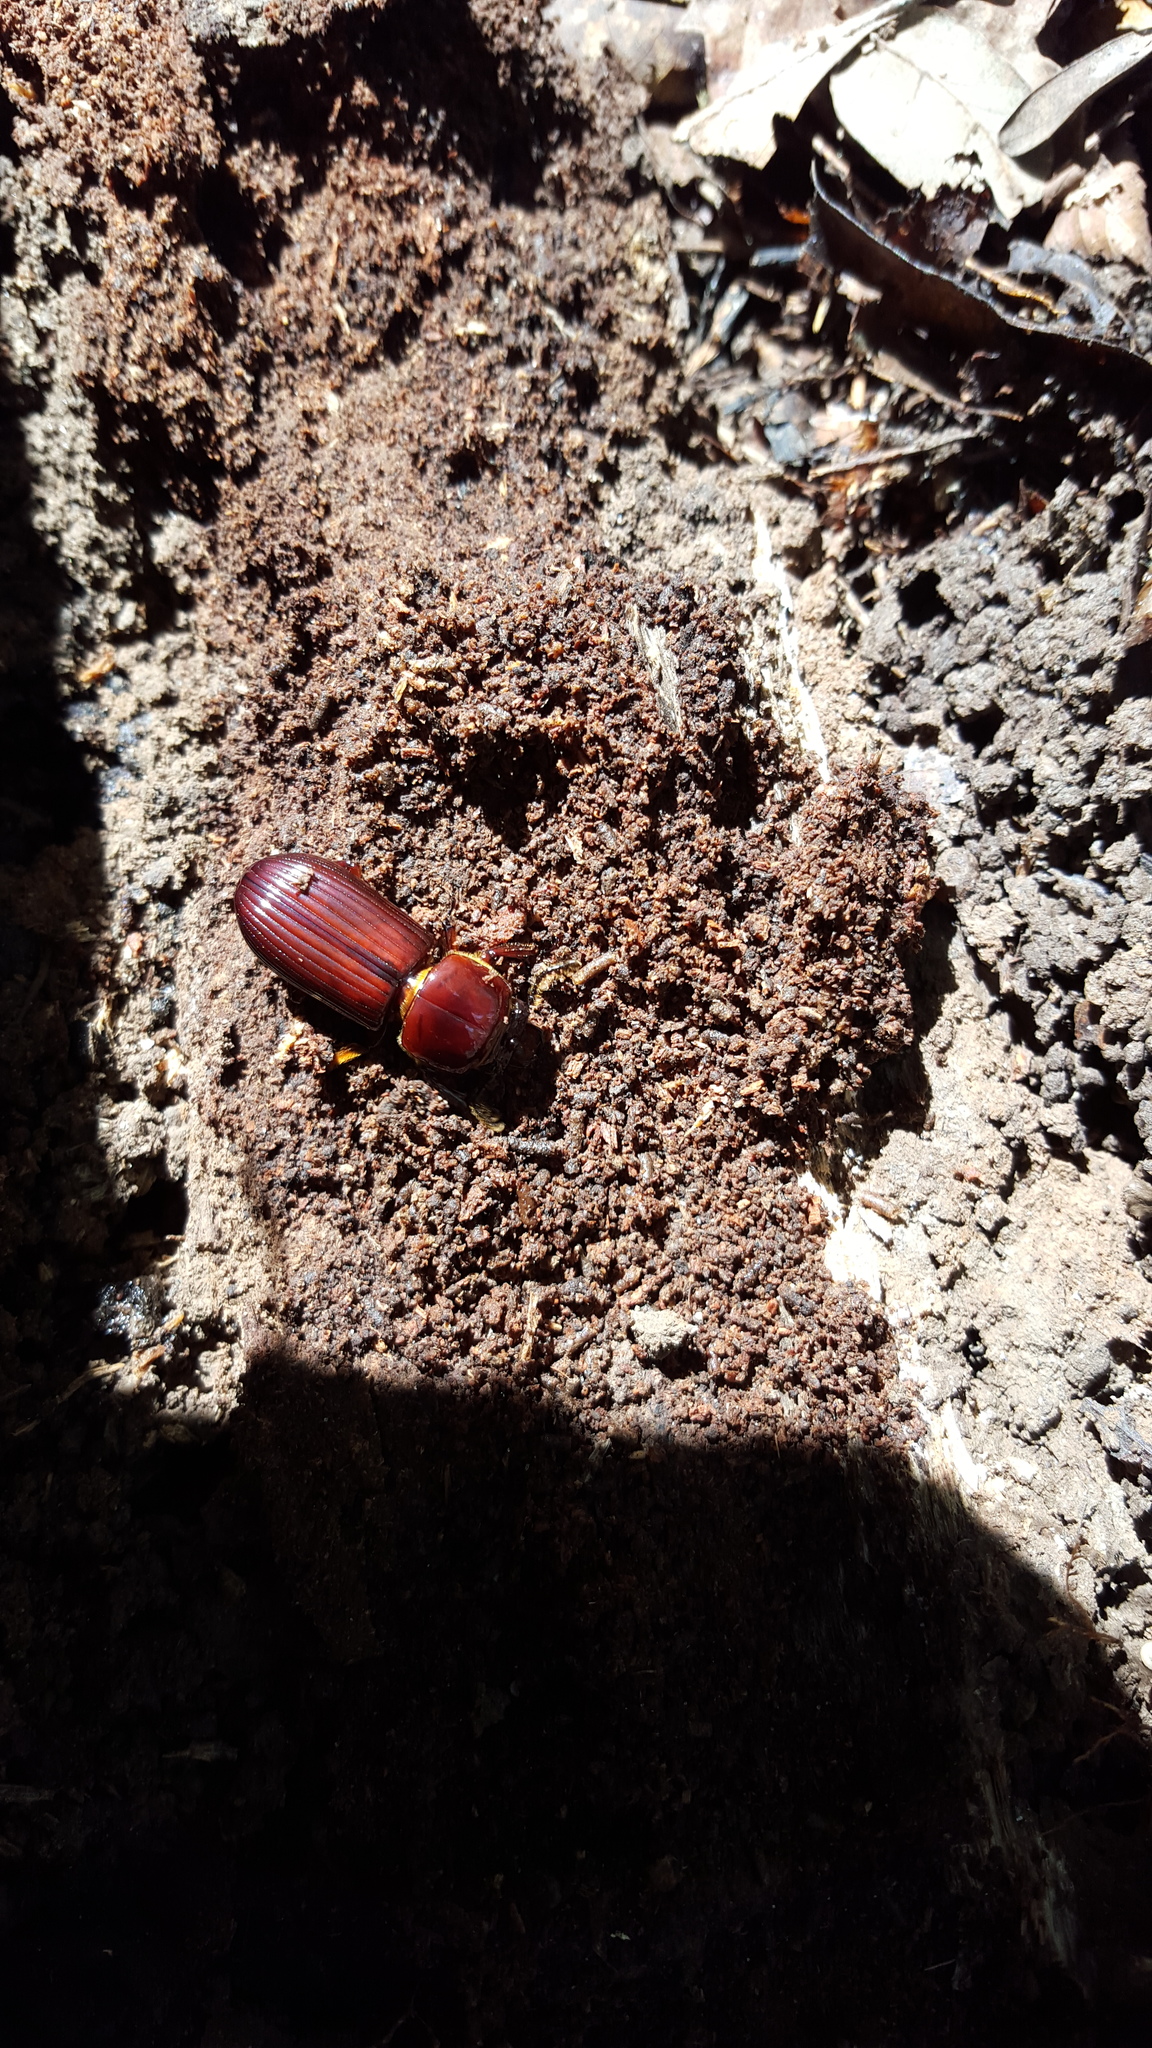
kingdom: Animalia
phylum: Arthropoda
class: Insecta
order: Coleoptera
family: Passalidae
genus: Odontotaenius
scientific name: Odontotaenius disjunctus
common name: Patent leather beetle
